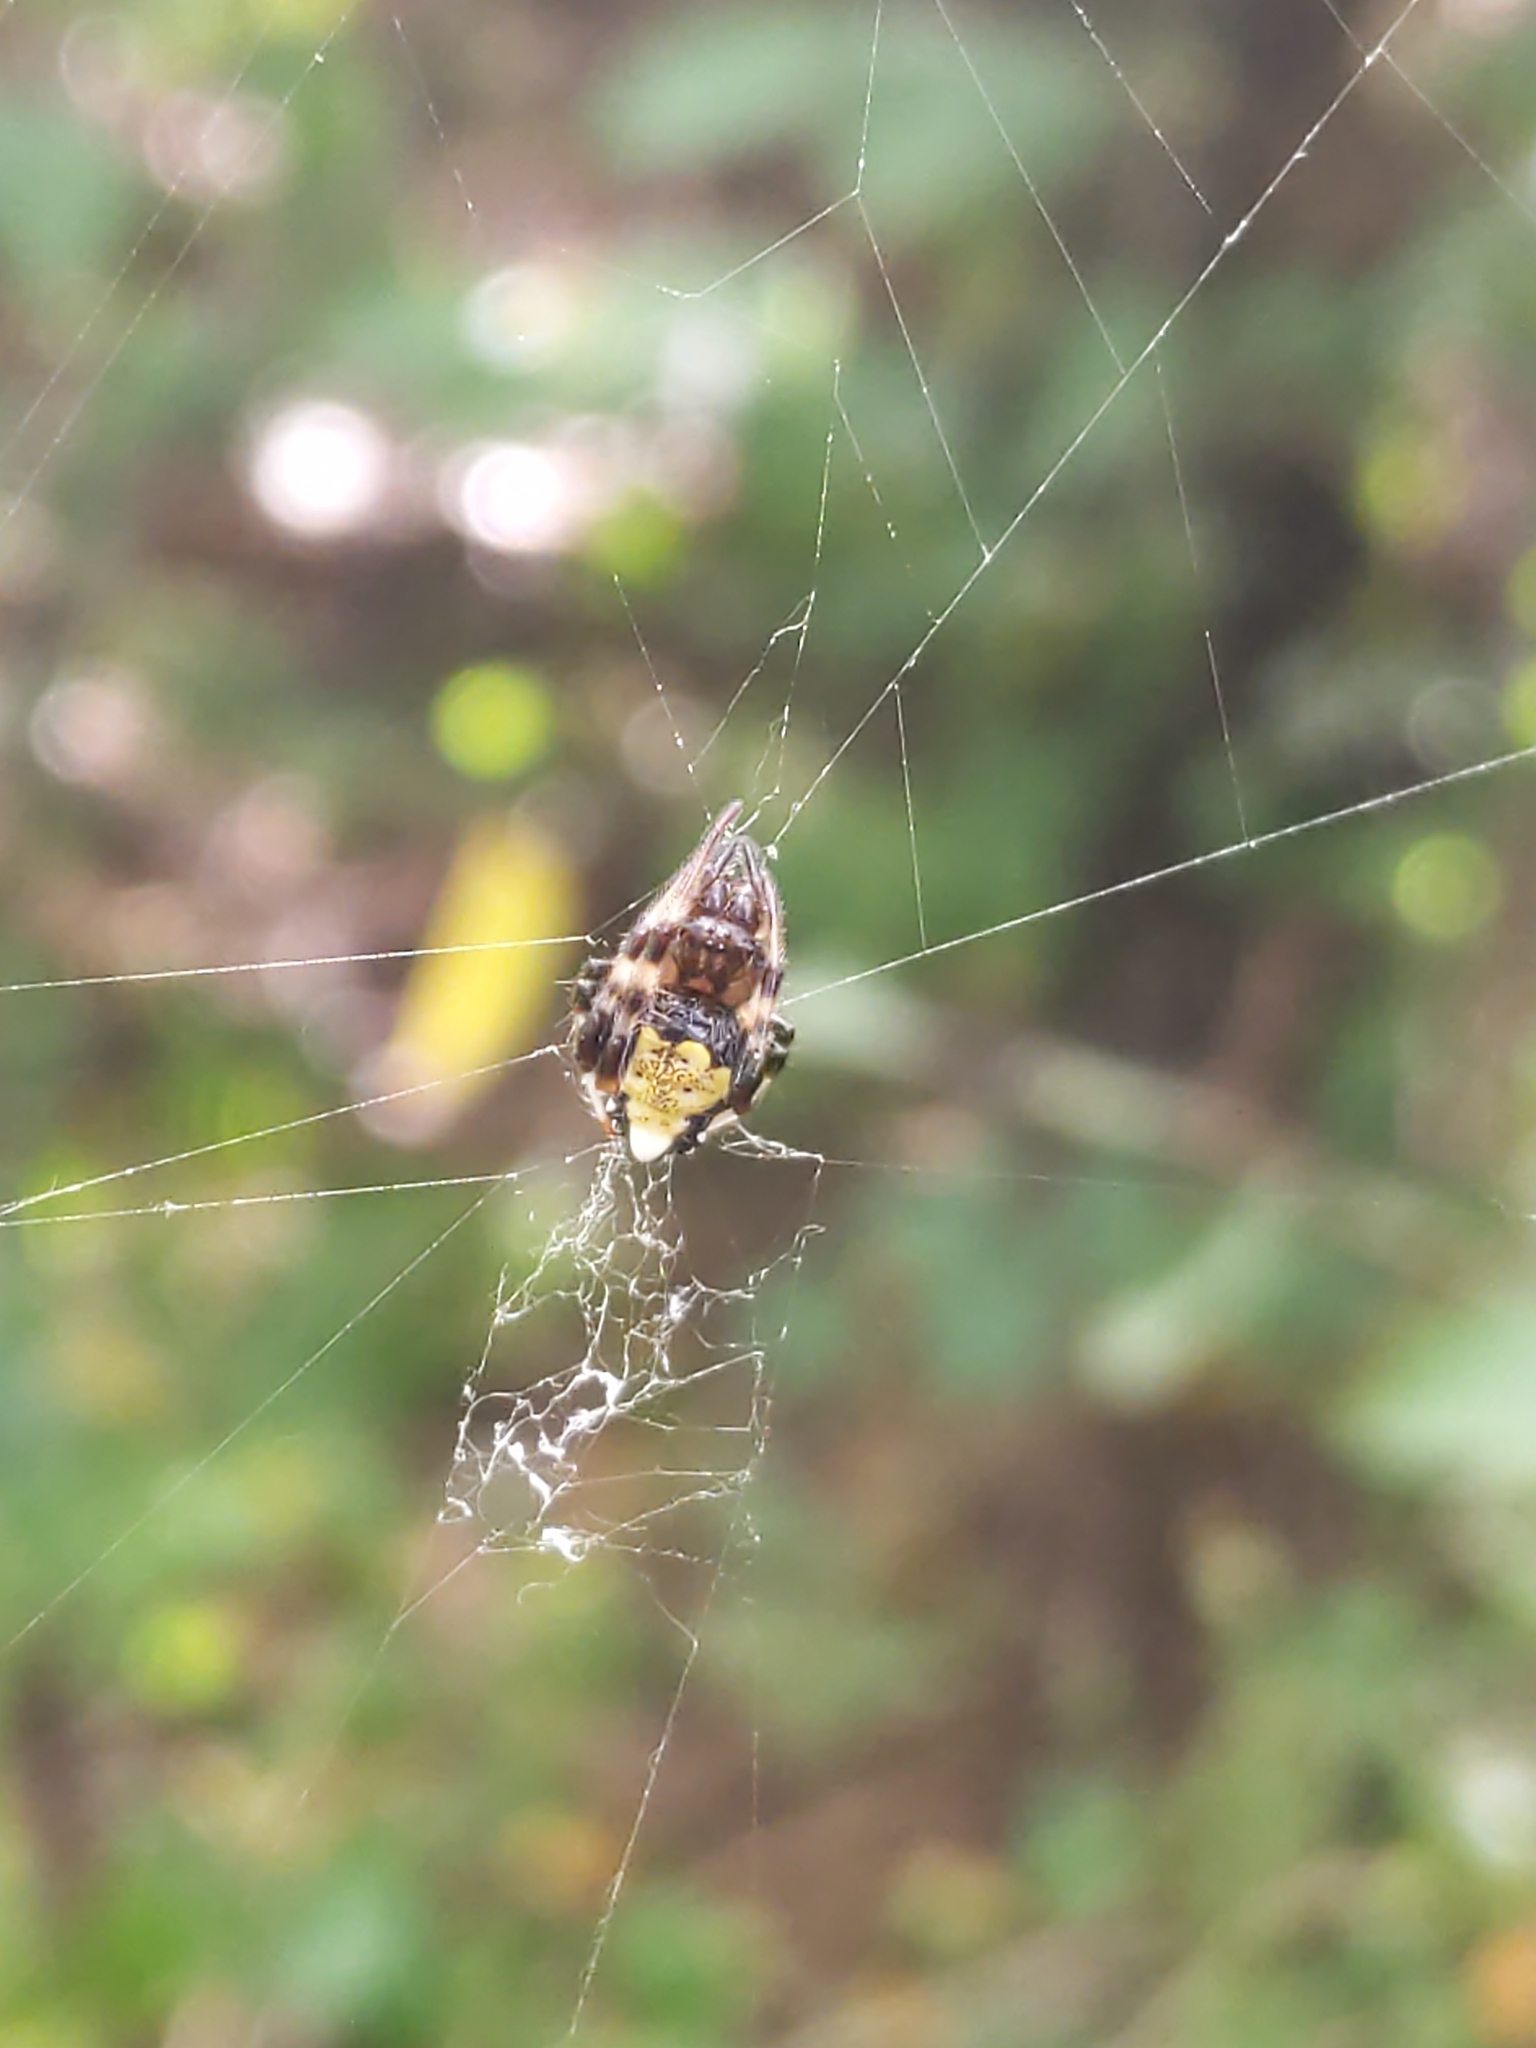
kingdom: Animalia
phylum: Arthropoda
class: Arachnida
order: Araneae
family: Araneidae
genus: Verrucosa
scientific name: Verrucosa arenata
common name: Orb weavers
